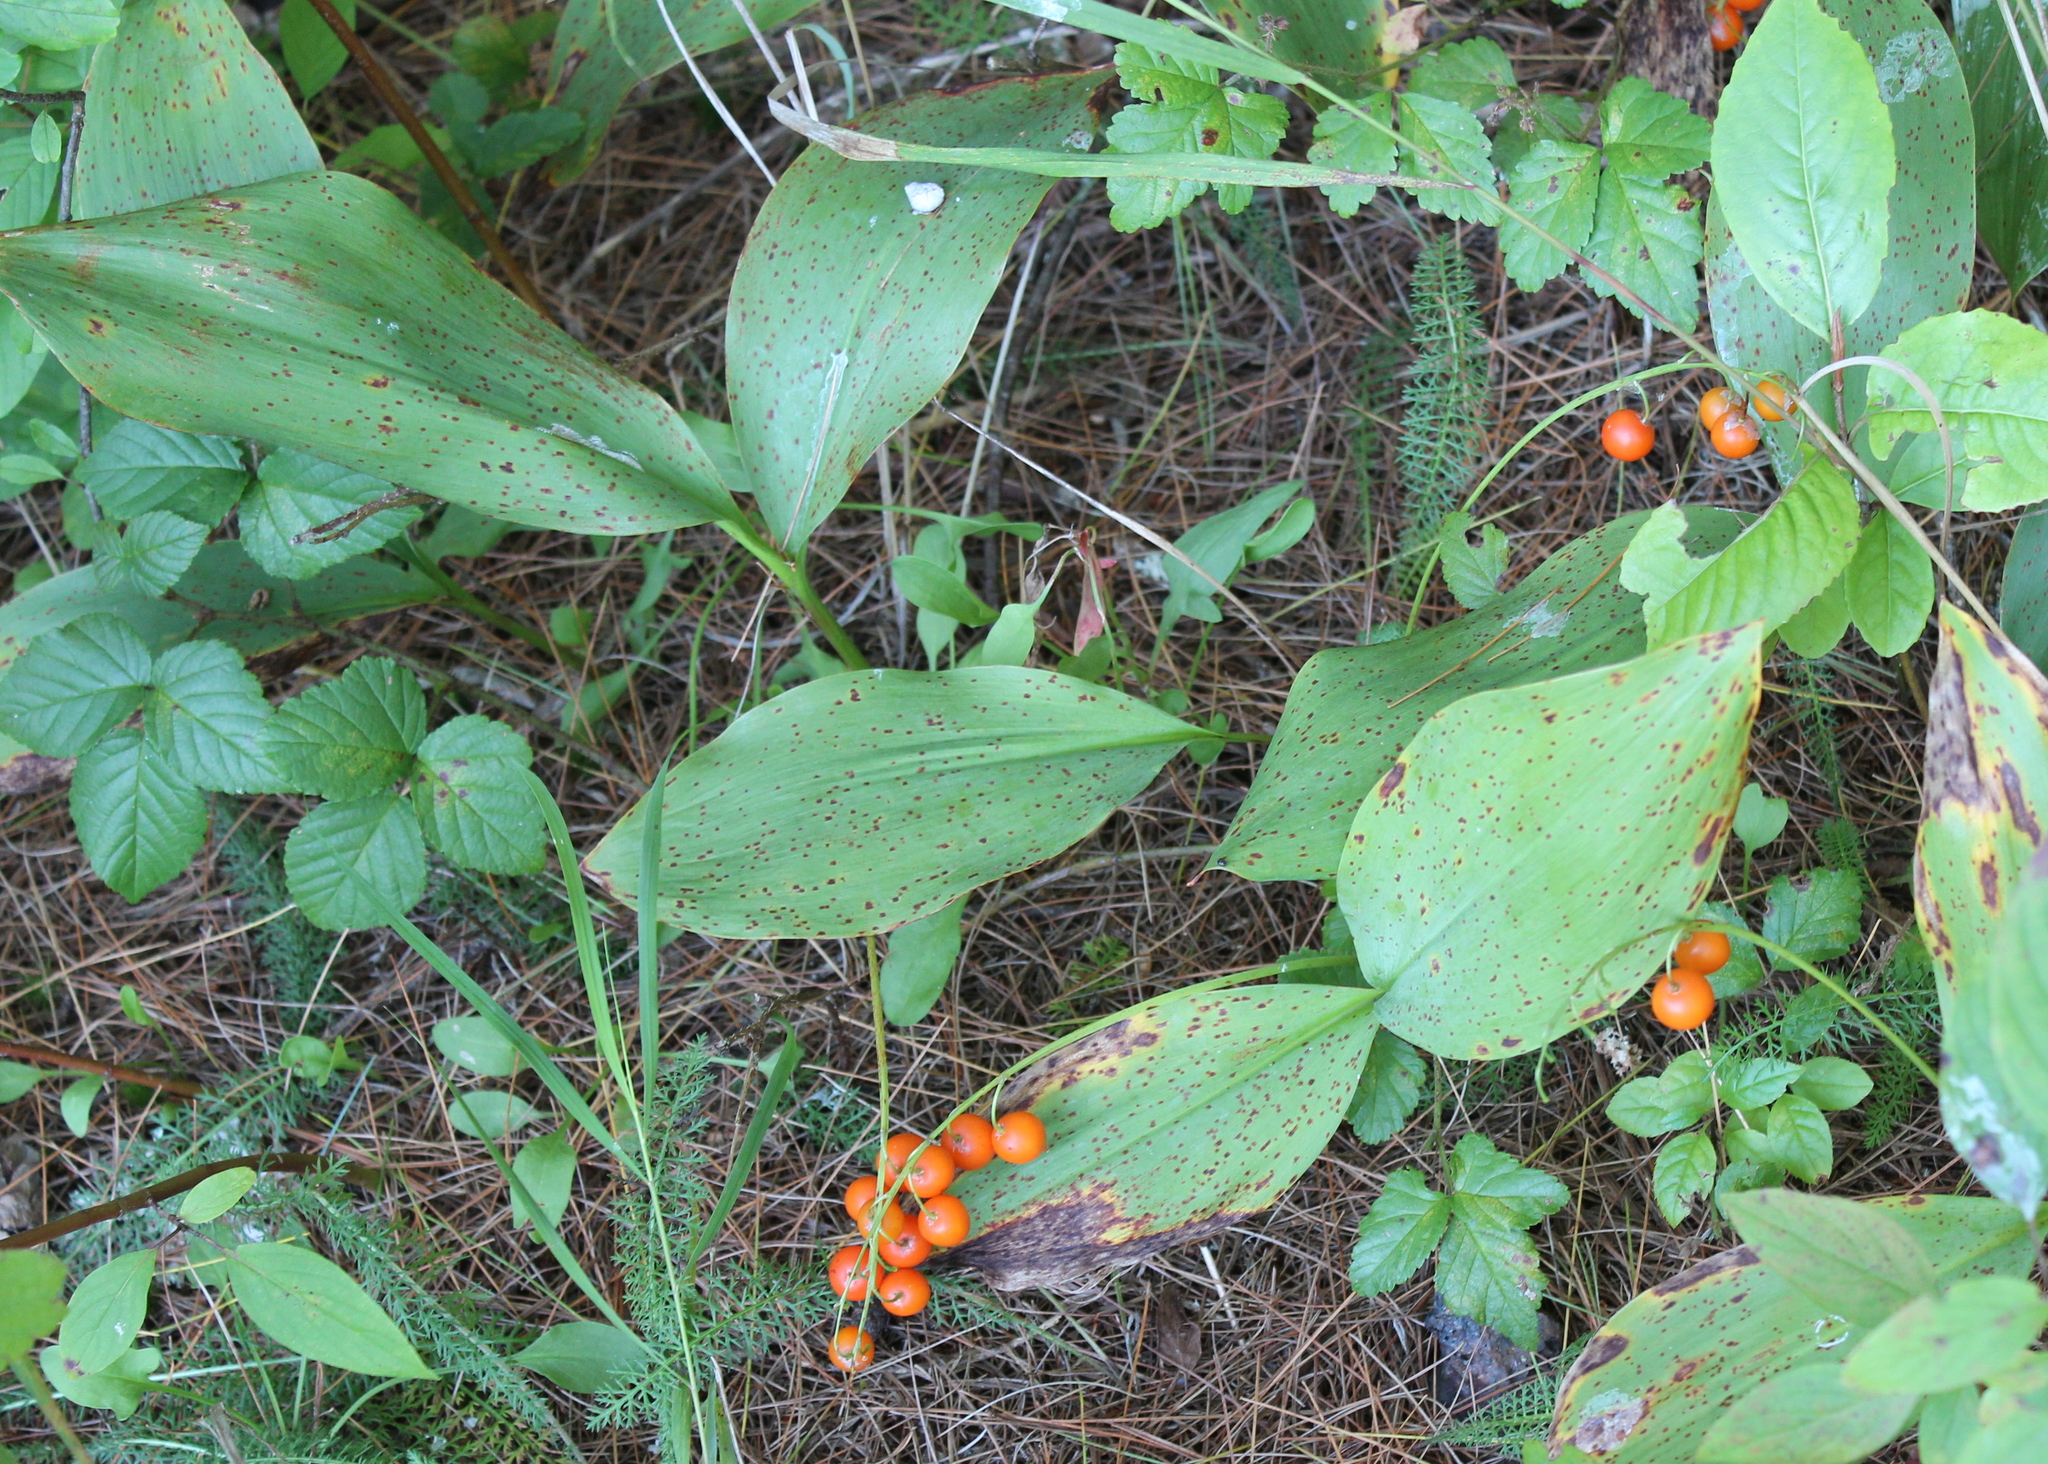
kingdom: Plantae
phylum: Tracheophyta
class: Liliopsida
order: Asparagales
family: Asparagaceae
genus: Convallaria
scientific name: Convallaria majalis
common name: Lily-of-the-valley
